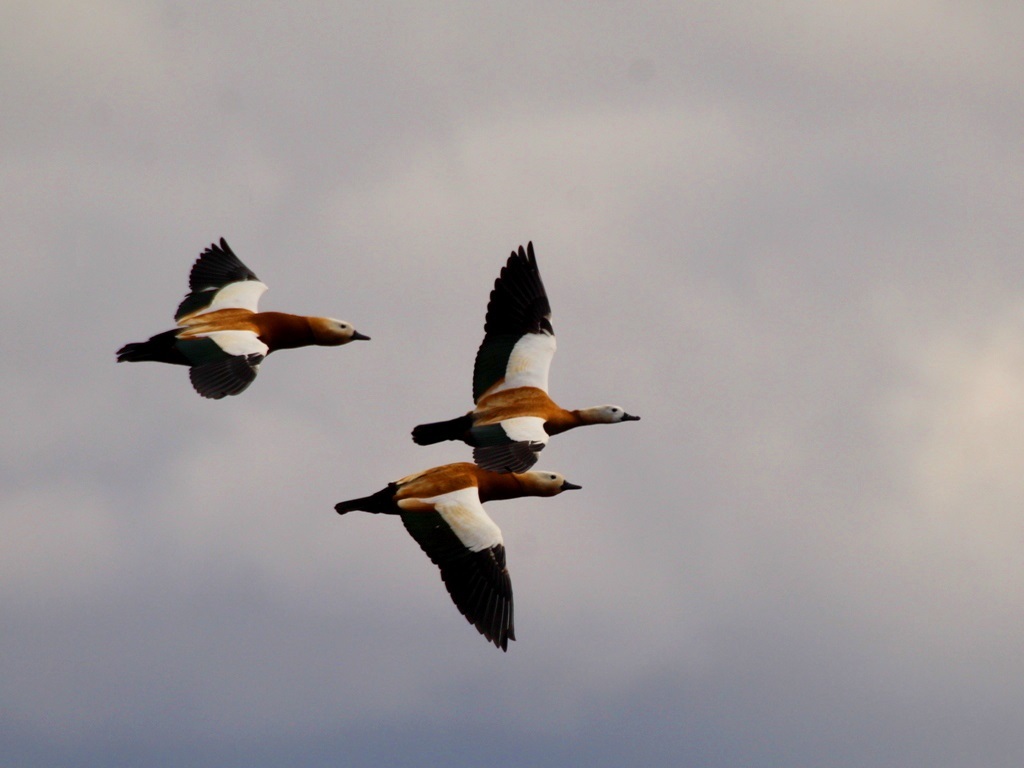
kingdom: Animalia
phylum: Chordata
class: Aves
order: Anseriformes
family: Anatidae
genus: Tadorna
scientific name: Tadorna ferruginea
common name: Ruddy shelduck
